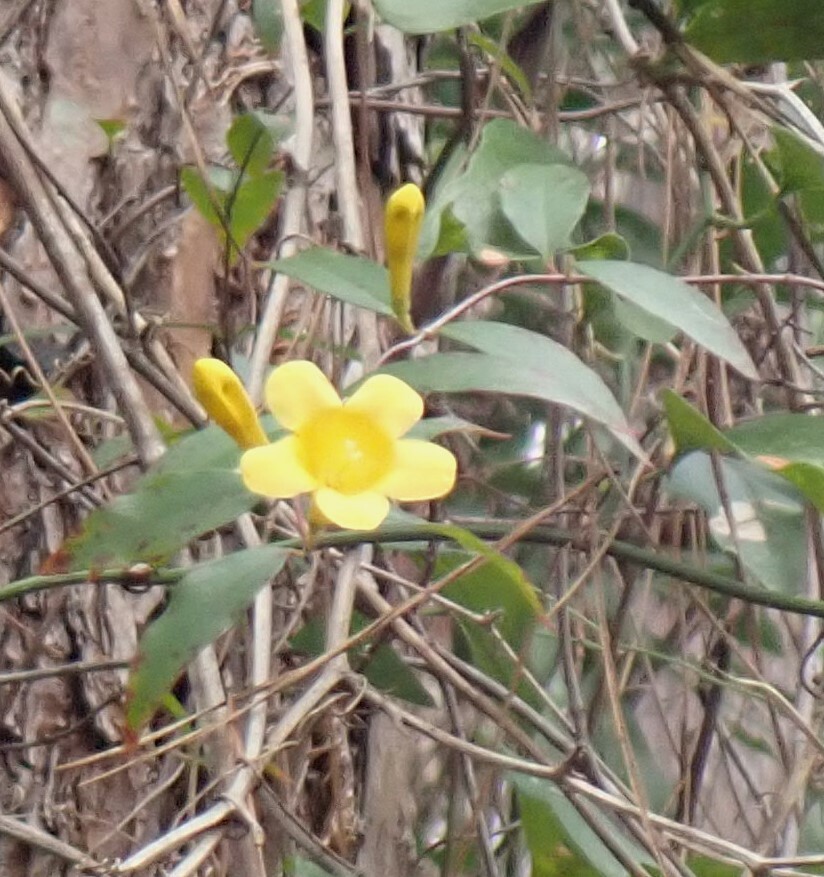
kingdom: Plantae
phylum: Tracheophyta
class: Magnoliopsida
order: Gentianales
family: Gelsemiaceae
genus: Gelsemium
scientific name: Gelsemium sempervirens
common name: Carolina-jasmine
